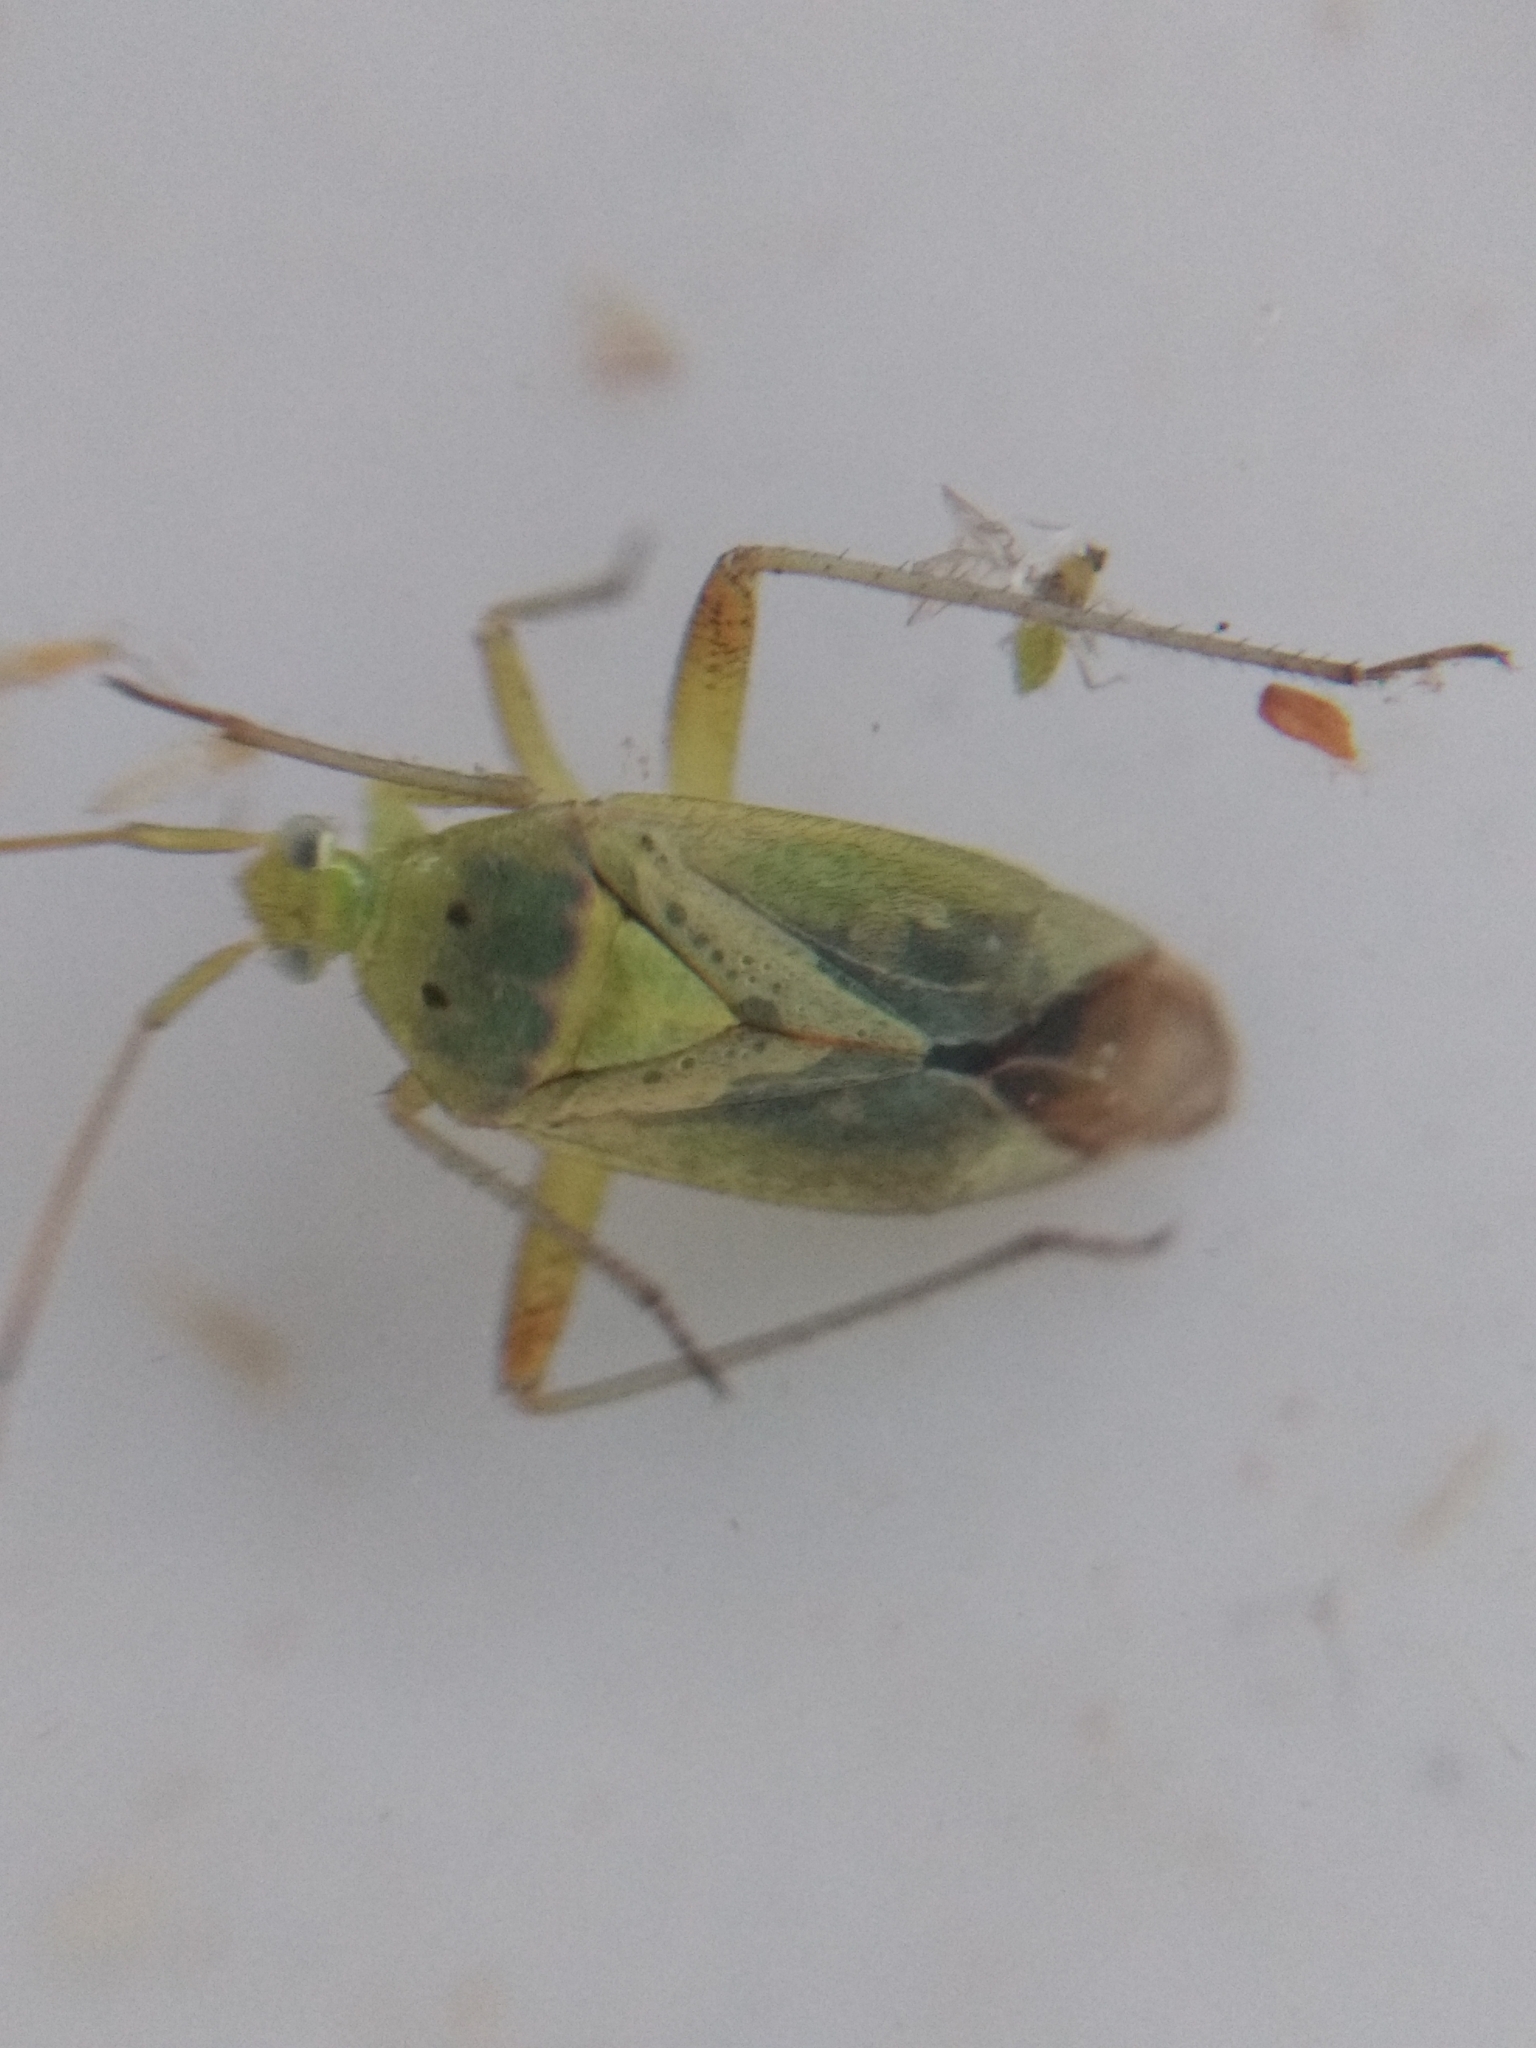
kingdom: Animalia
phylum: Arthropoda
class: Insecta
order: Hemiptera
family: Miridae
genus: Closterotomus
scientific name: Closterotomus norvegicus
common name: Plant bug
